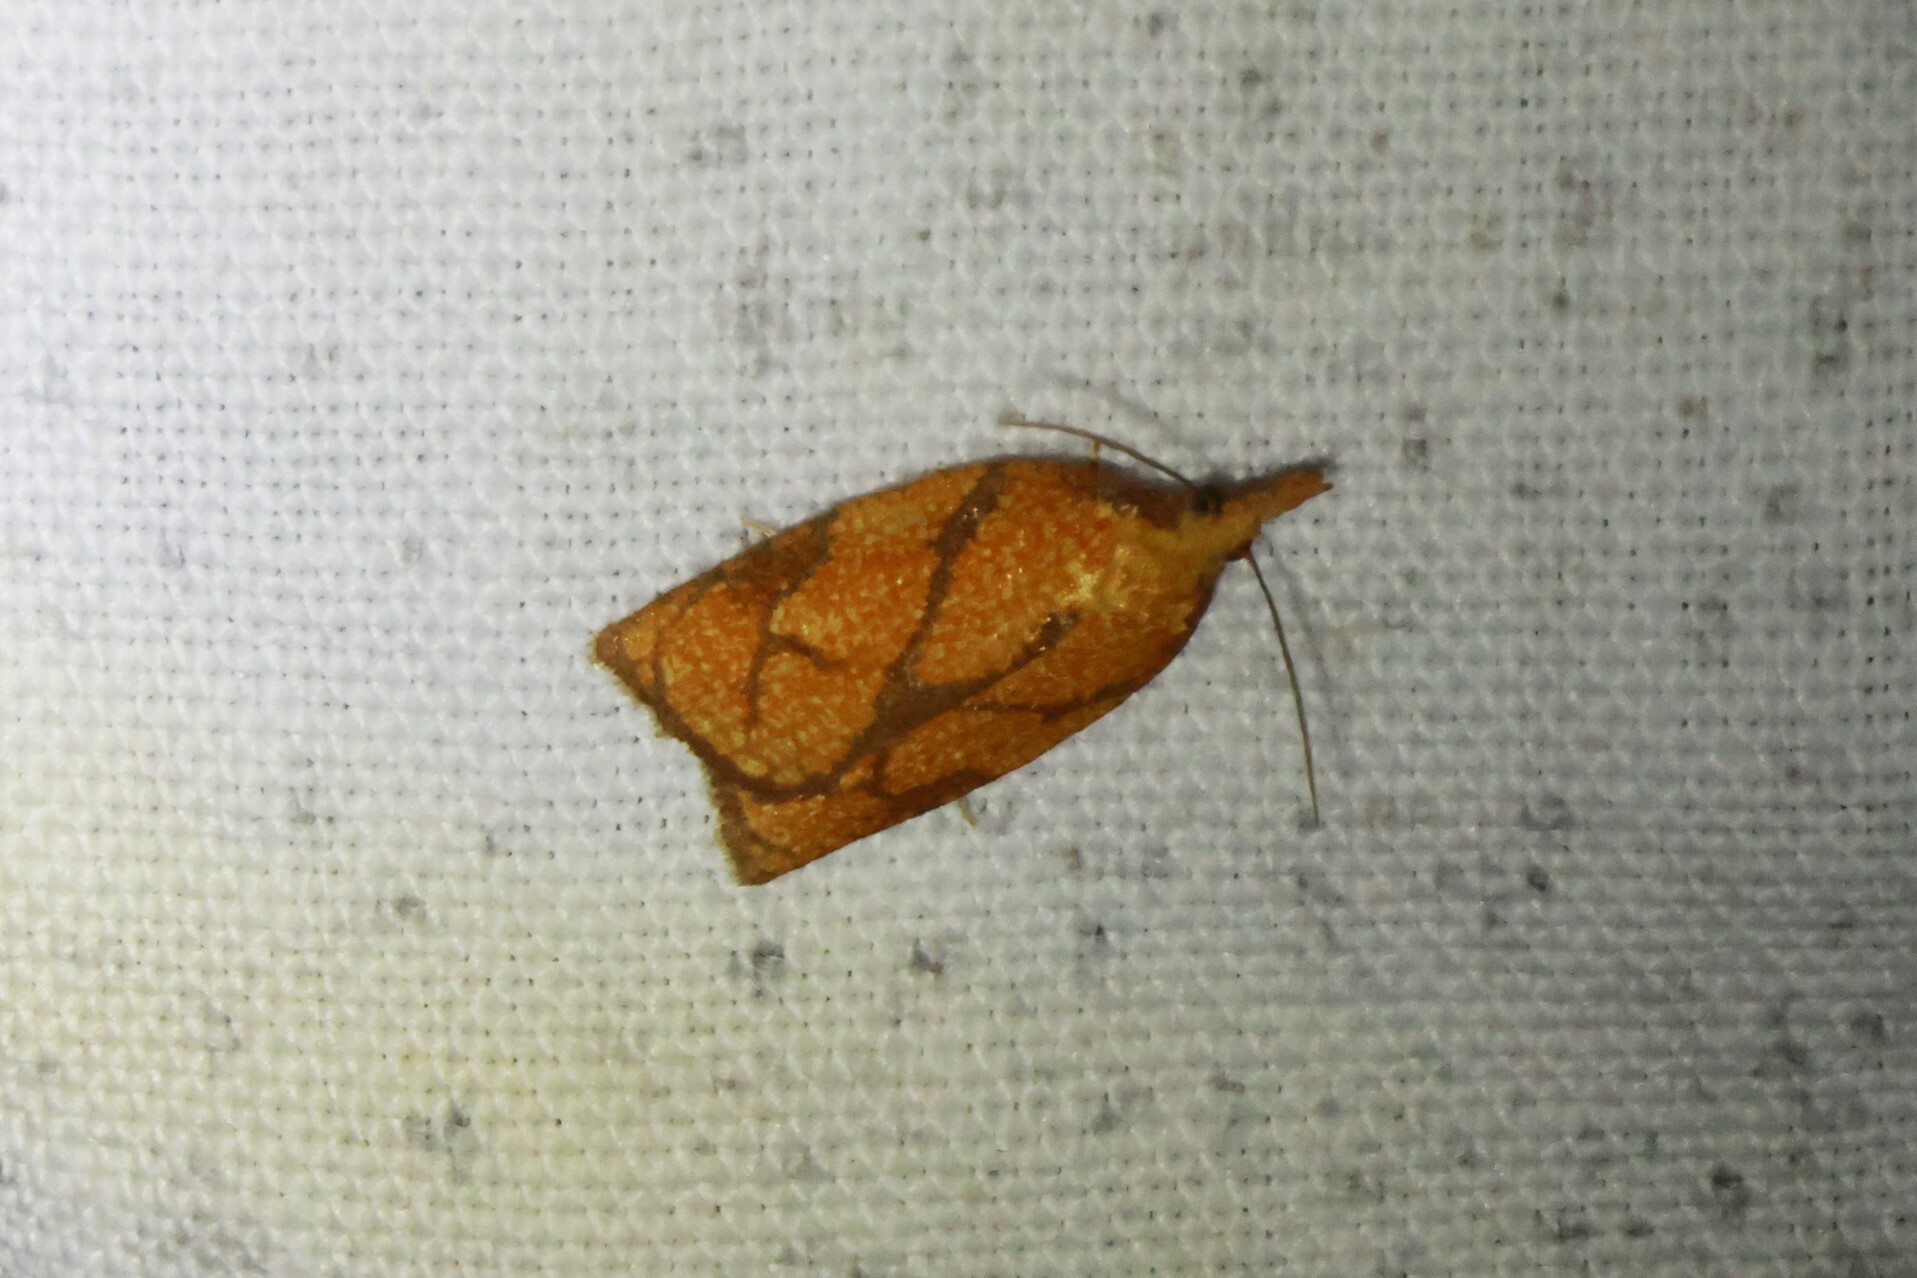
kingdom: Animalia
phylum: Arthropoda
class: Insecta
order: Lepidoptera
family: Tortricidae
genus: Cenopis
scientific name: Cenopis reticulatana
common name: Reticulated fruitworm moth
